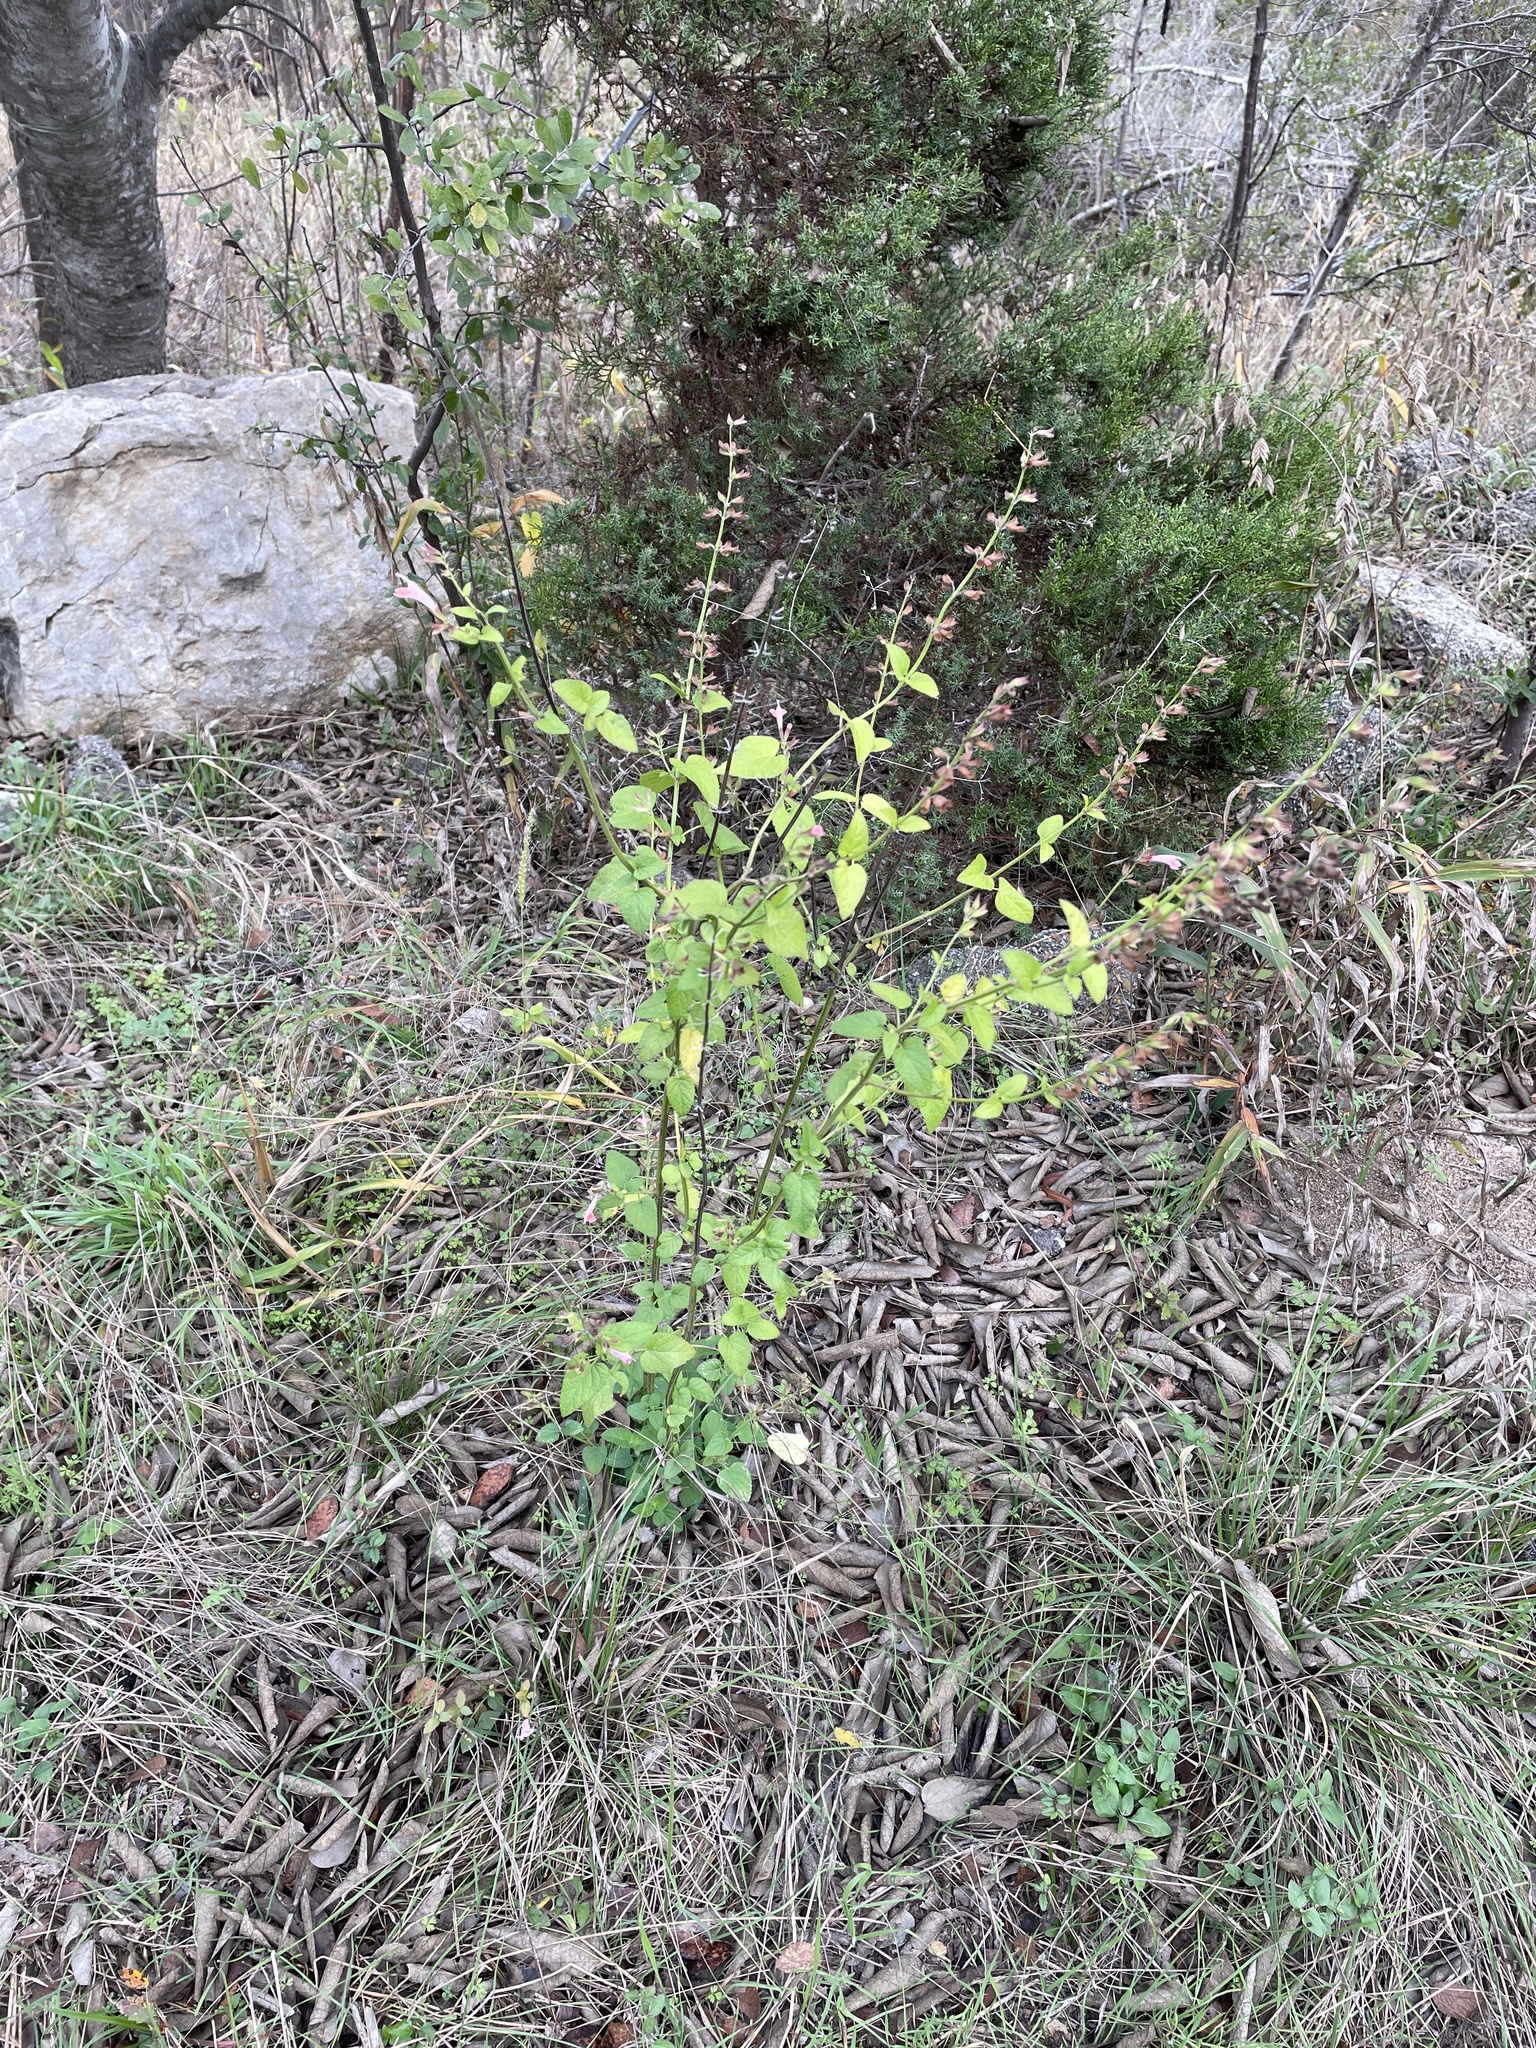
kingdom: Plantae
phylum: Tracheophyta
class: Magnoliopsida
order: Lamiales
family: Lamiaceae
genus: Salvia
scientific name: Salvia coccinea
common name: Blood sage
